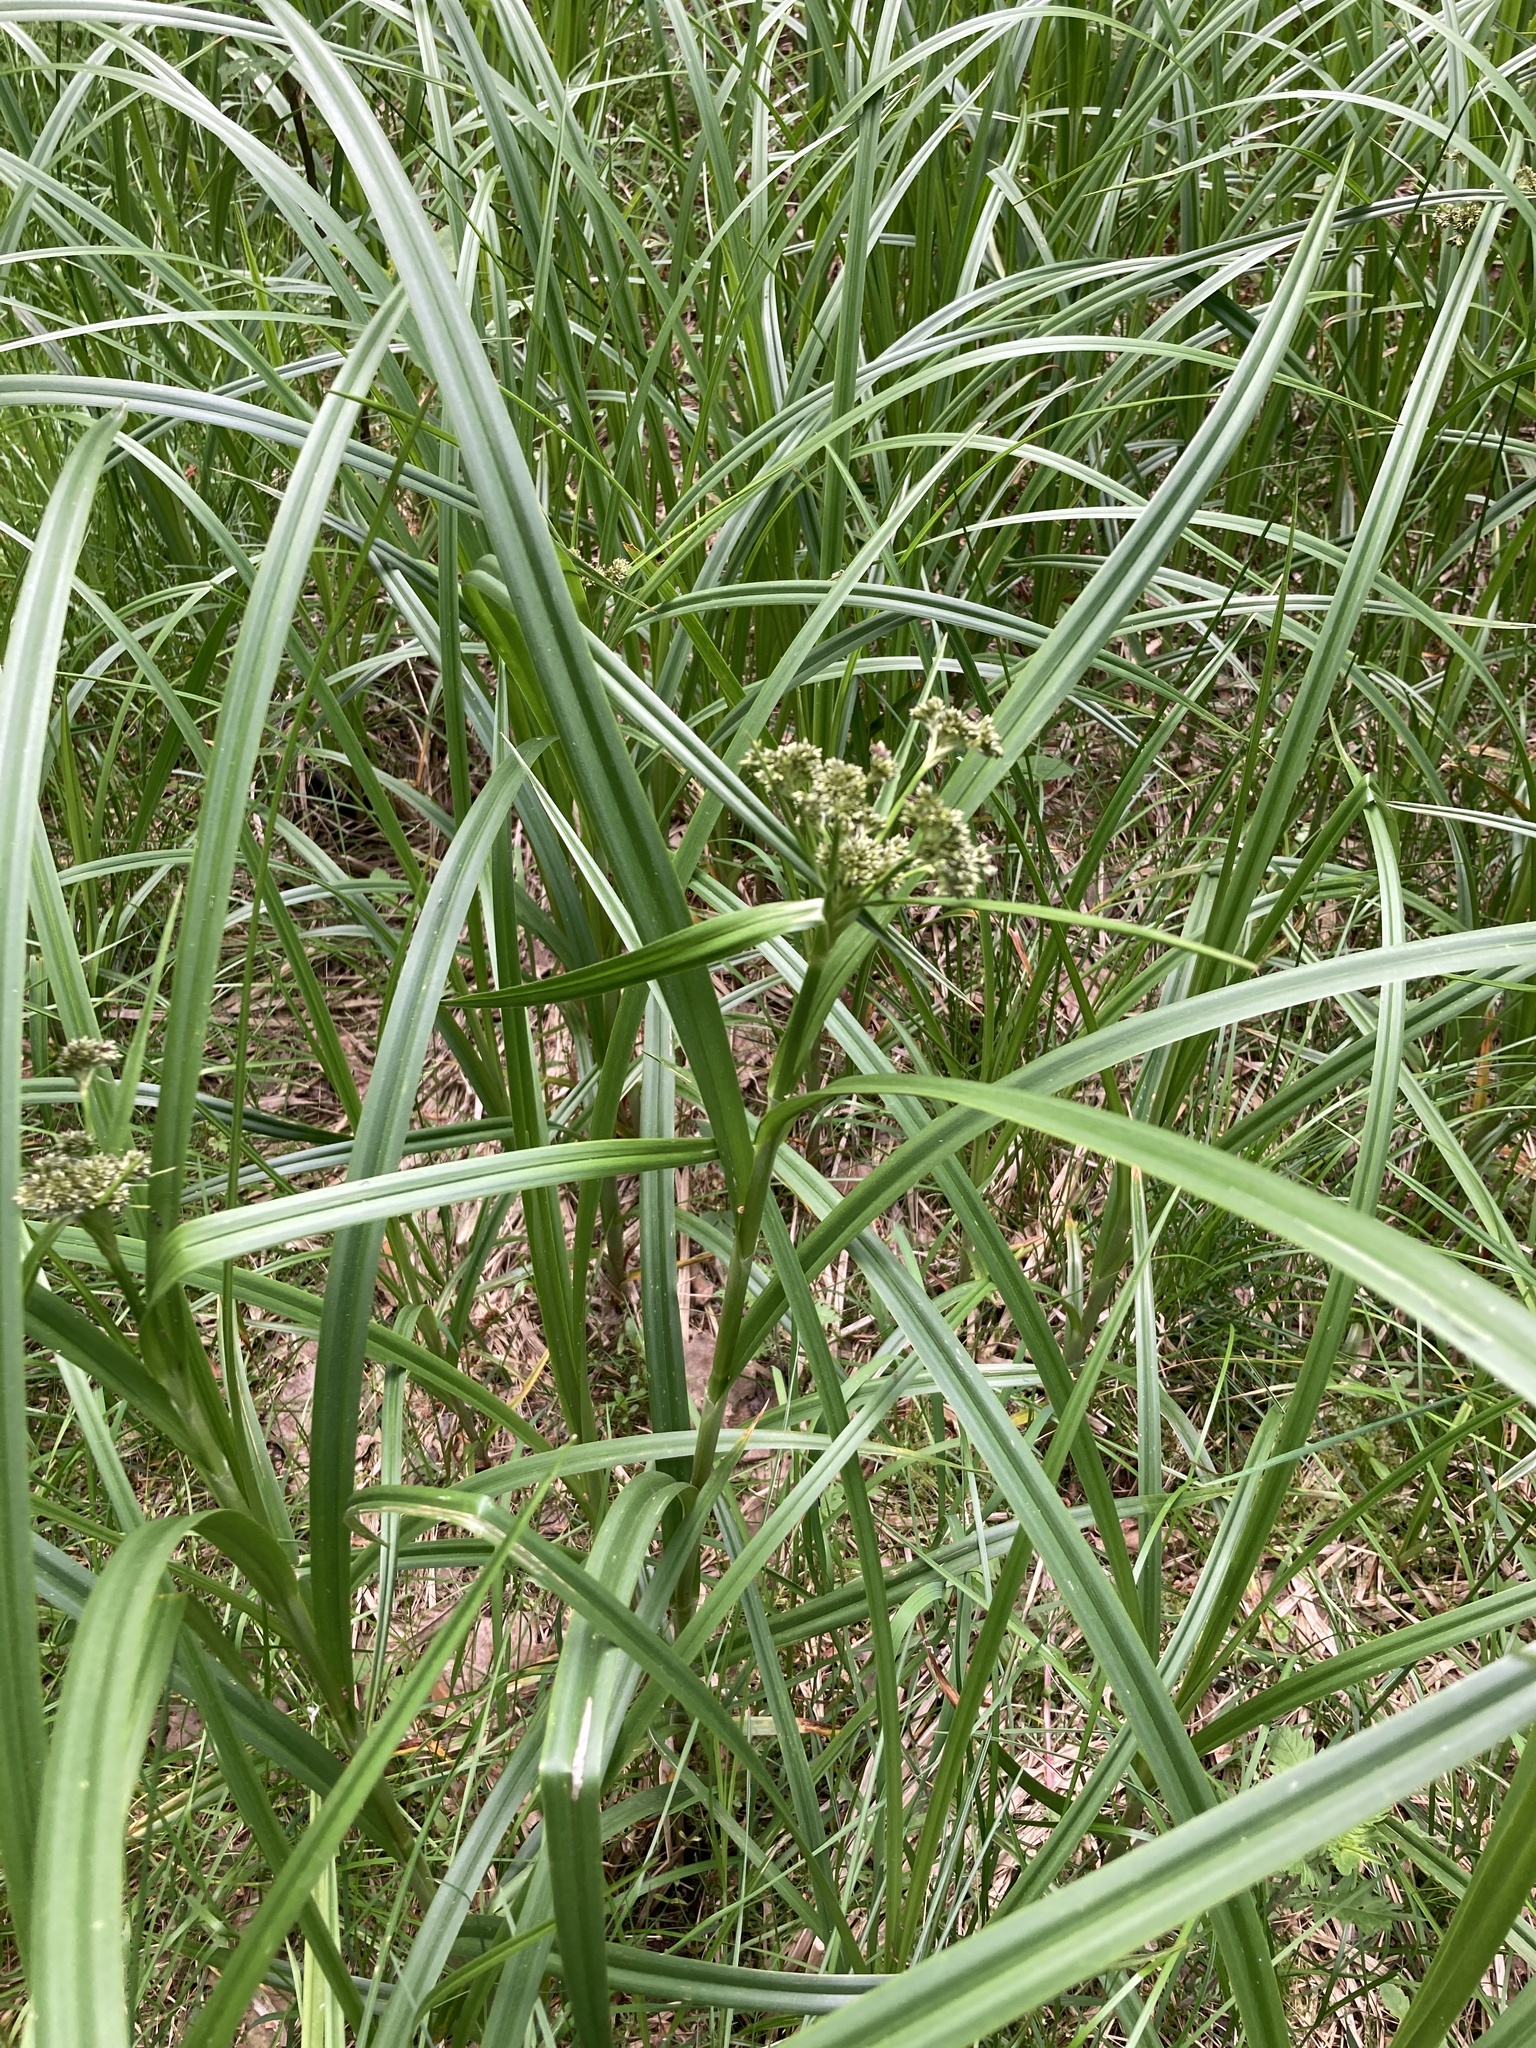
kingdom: Plantae
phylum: Tracheophyta
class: Liliopsida
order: Poales
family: Cyperaceae
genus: Scirpus
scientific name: Scirpus sylvaticus
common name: Wood club-rush
